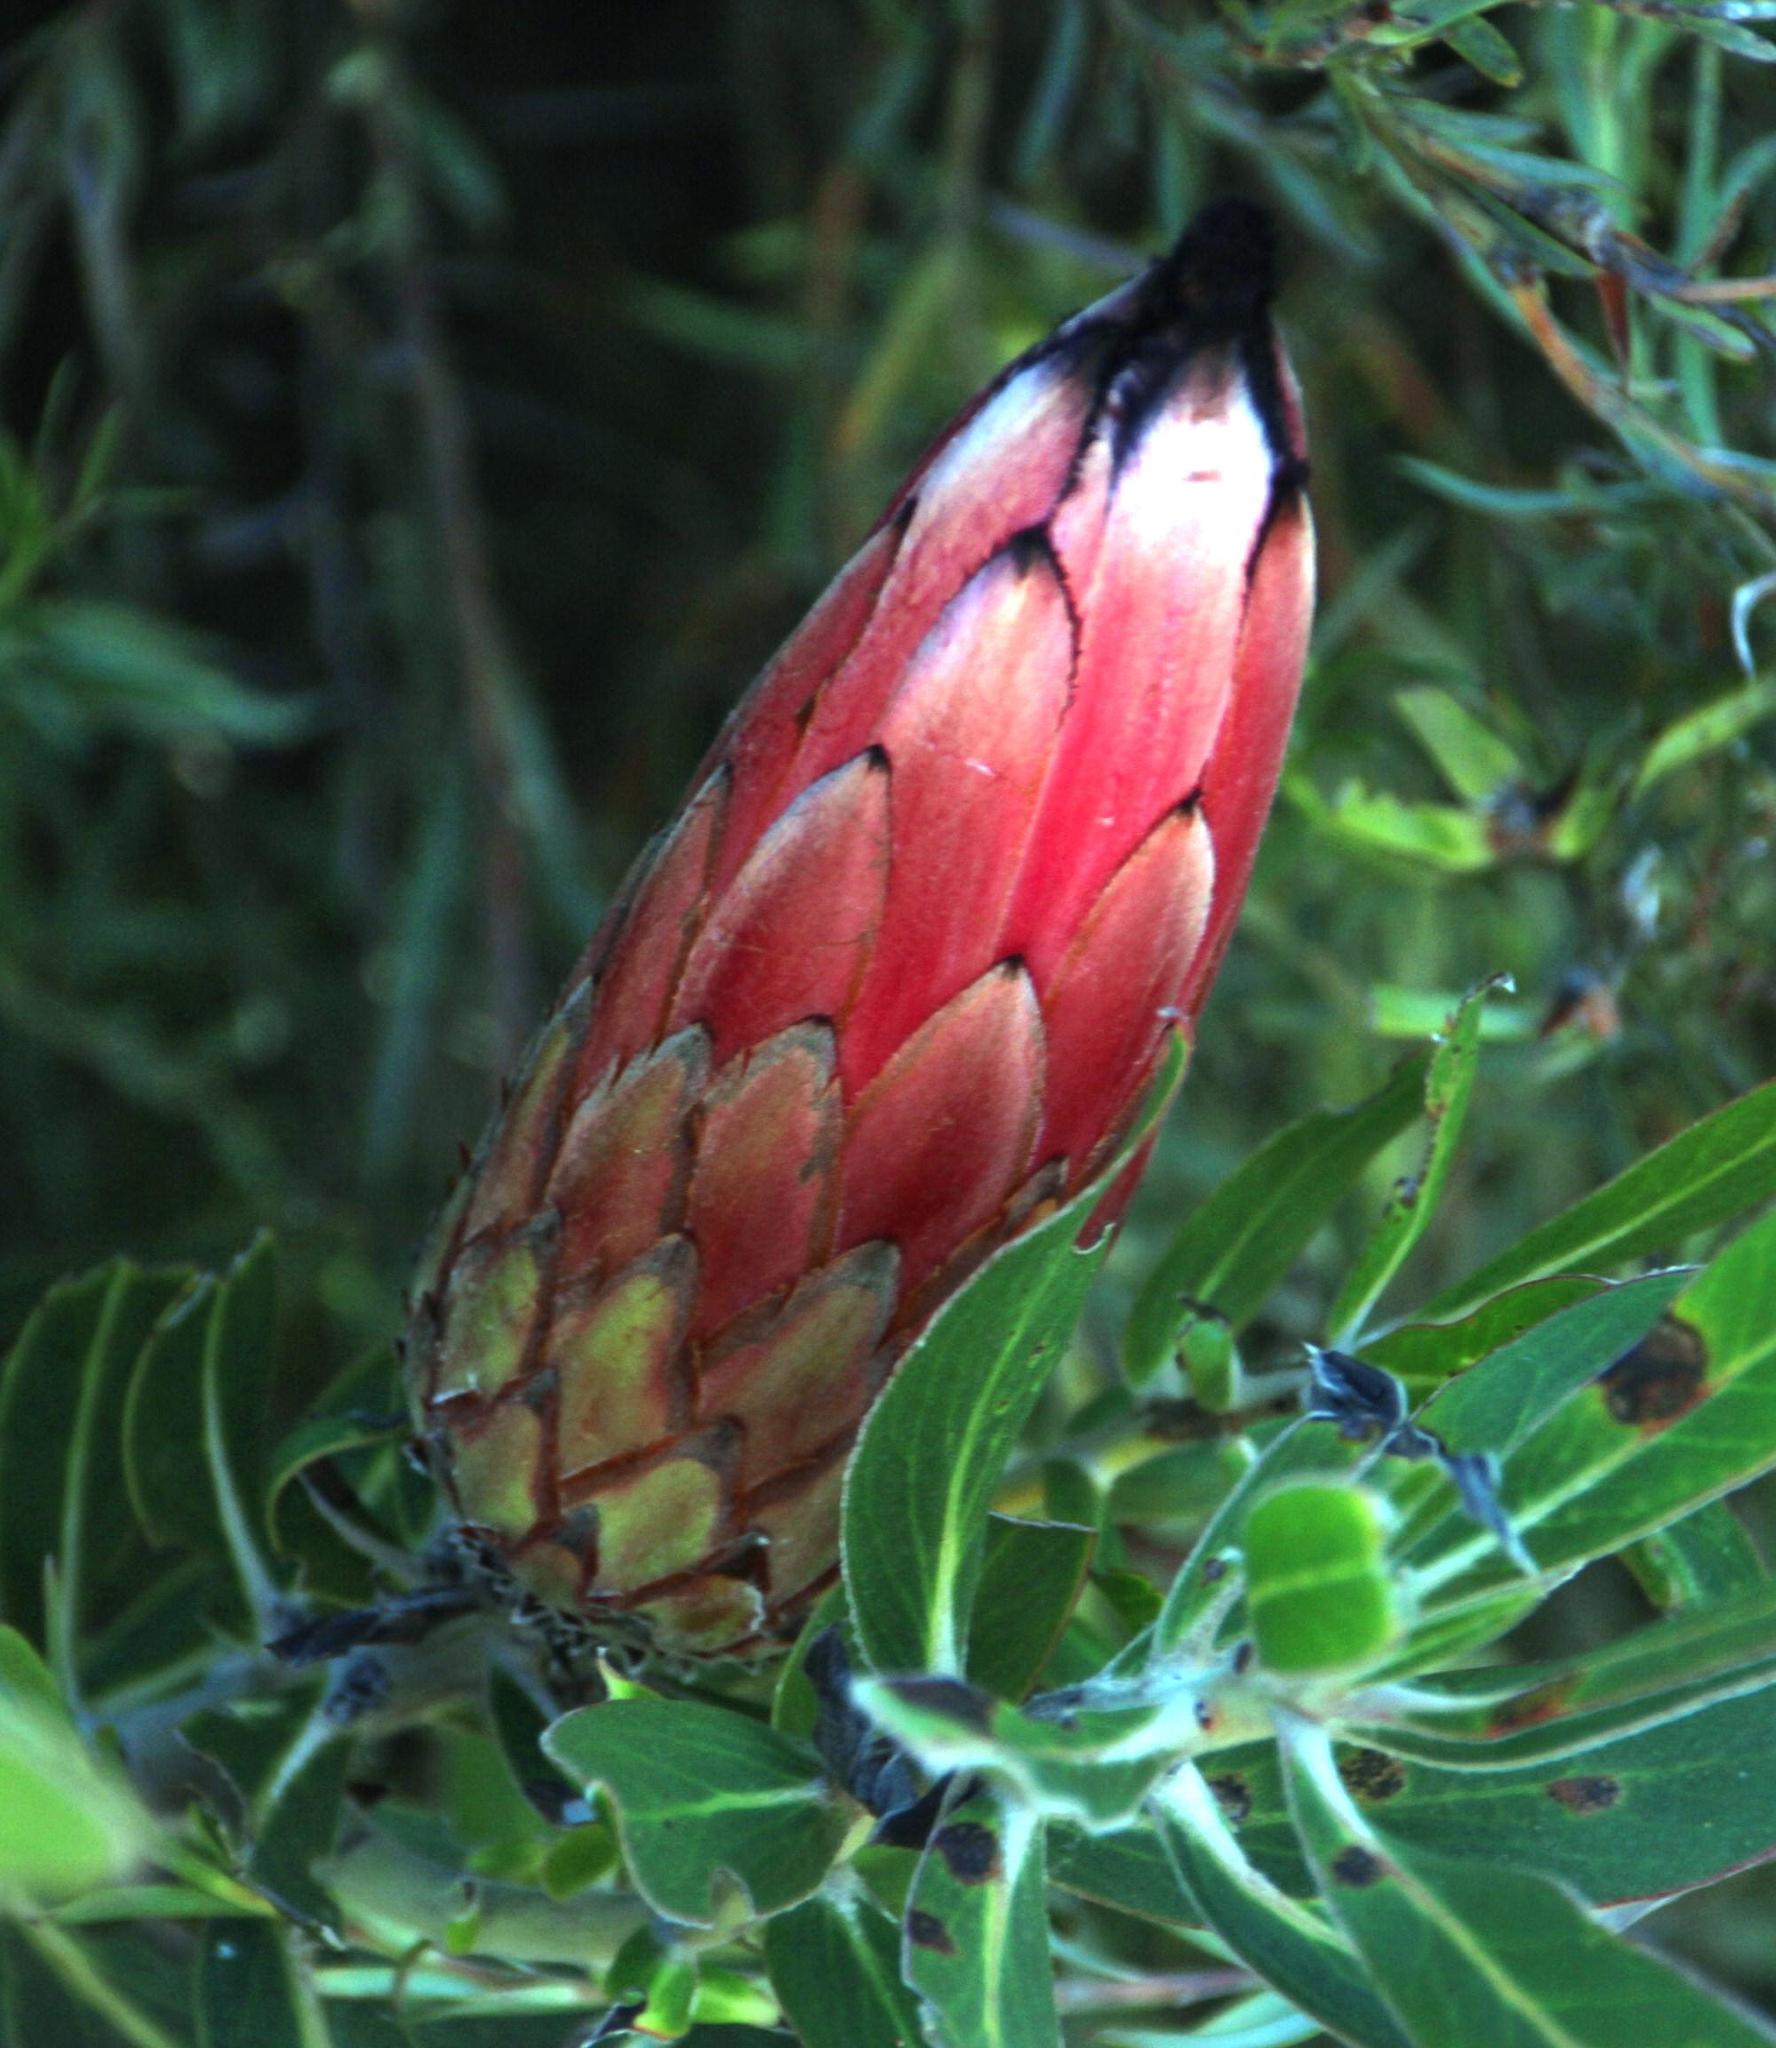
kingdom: Plantae
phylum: Tracheophyta
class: Magnoliopsida
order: Proteales
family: Proteaceae
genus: Protea
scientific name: Protea
